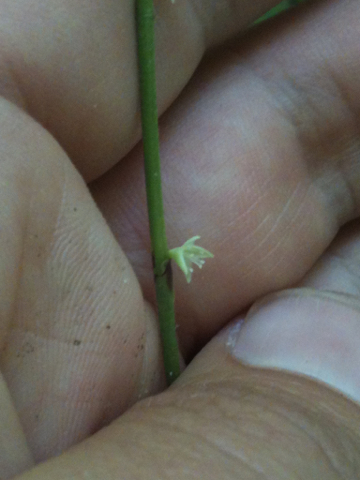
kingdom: Plantae
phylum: Tracheophyta
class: Magnoliopsida
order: Caryophyllales
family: Polygonaceae
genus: Persicaria
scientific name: Persicaria virginiana
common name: Jumpseed
